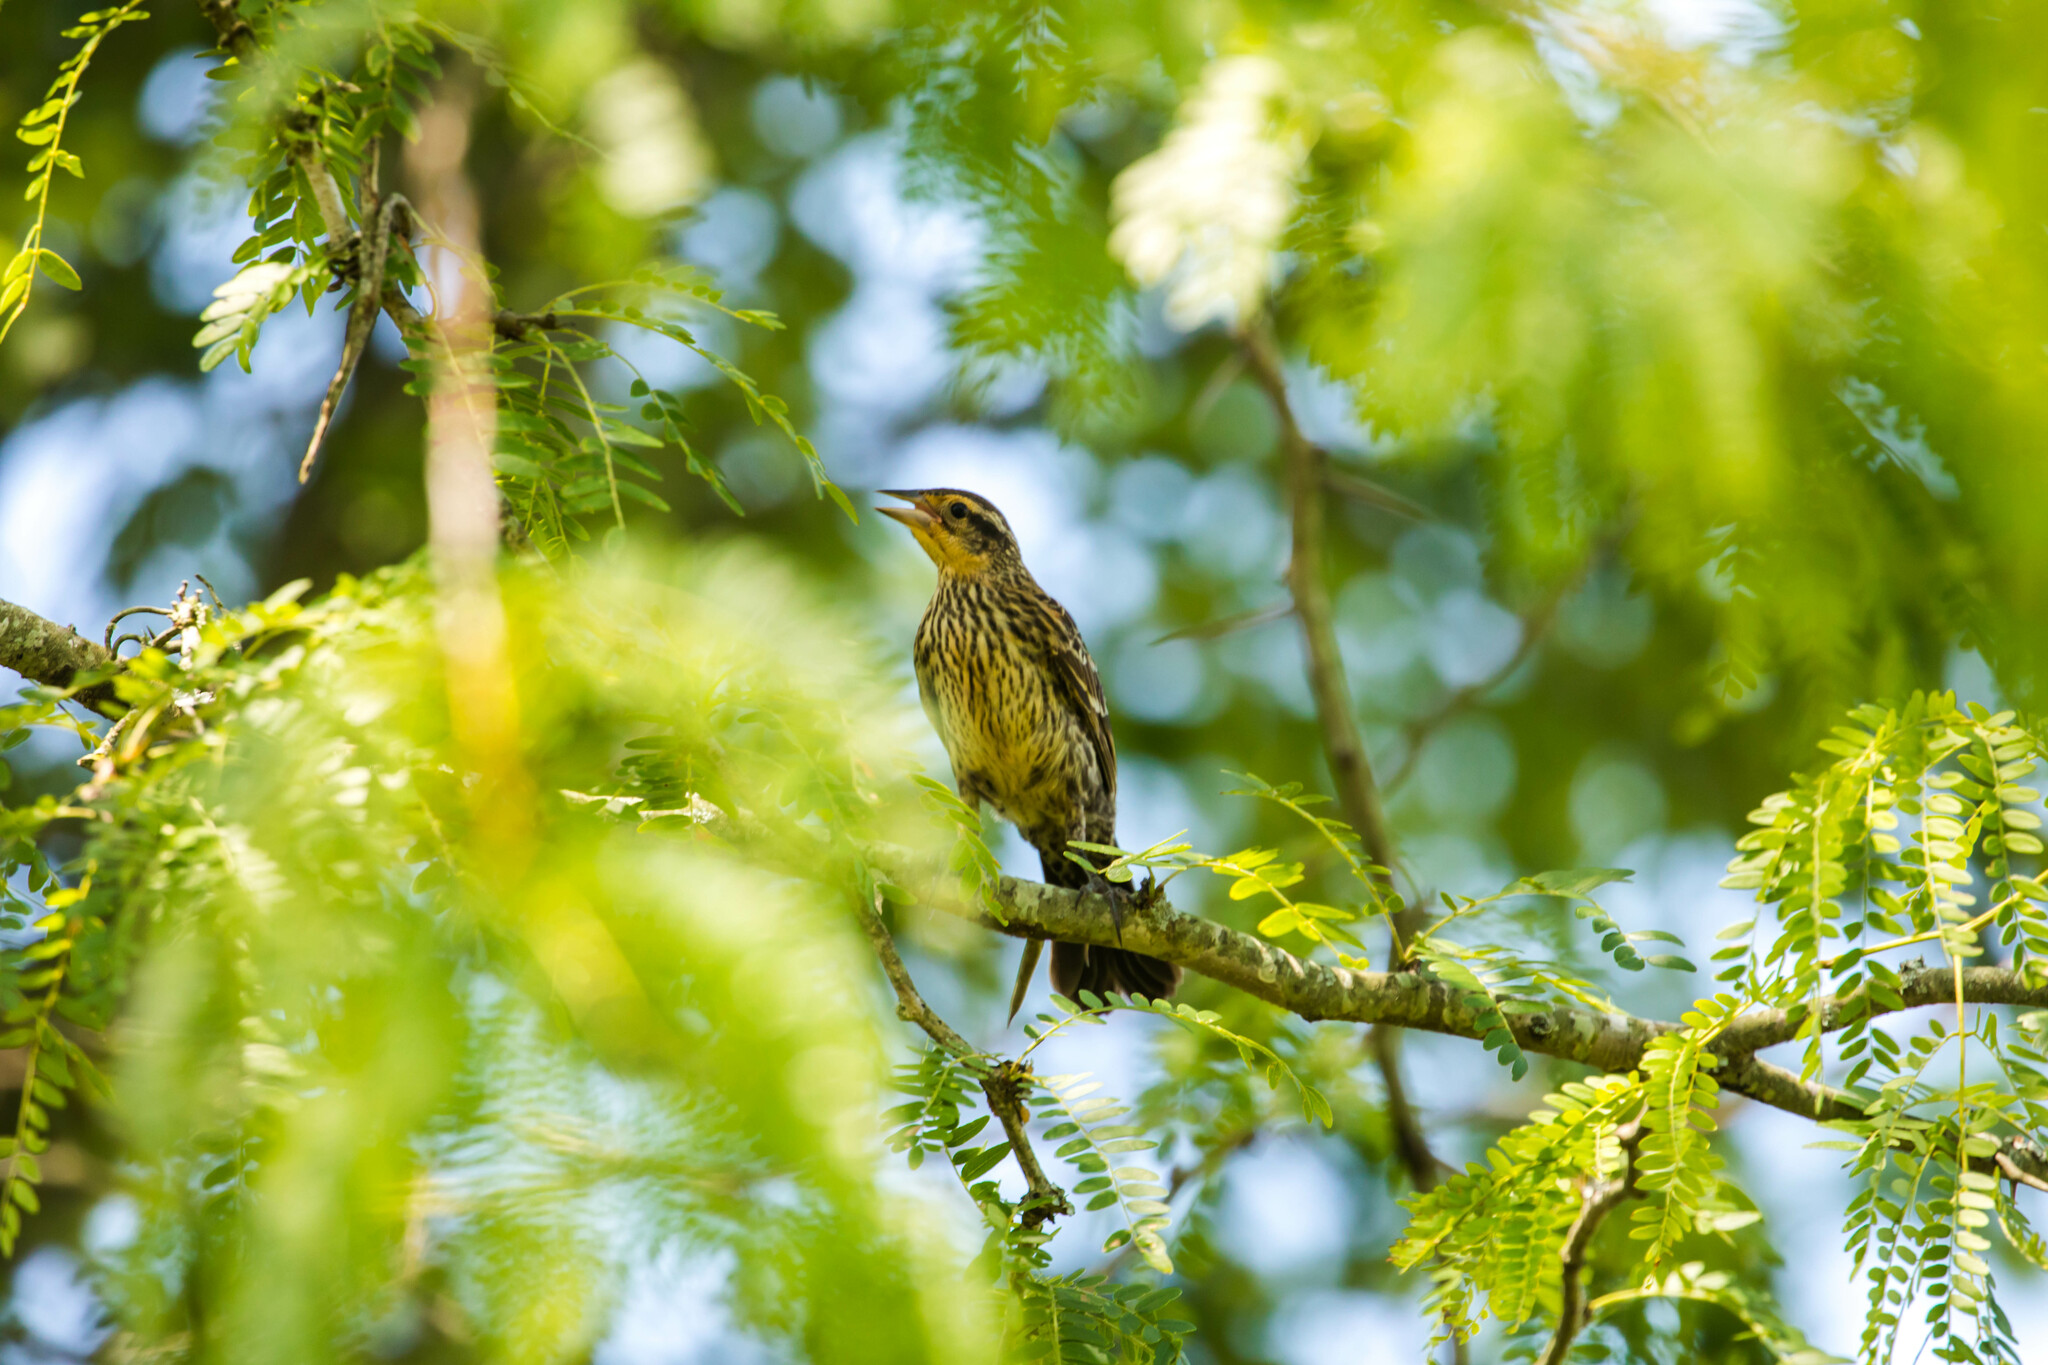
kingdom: Animalia
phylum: Chordata
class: Aves
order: Passeriformes
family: Icteridae
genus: Agelaius
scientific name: Agelaius phoeniceus
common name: Red-winged blackbird
